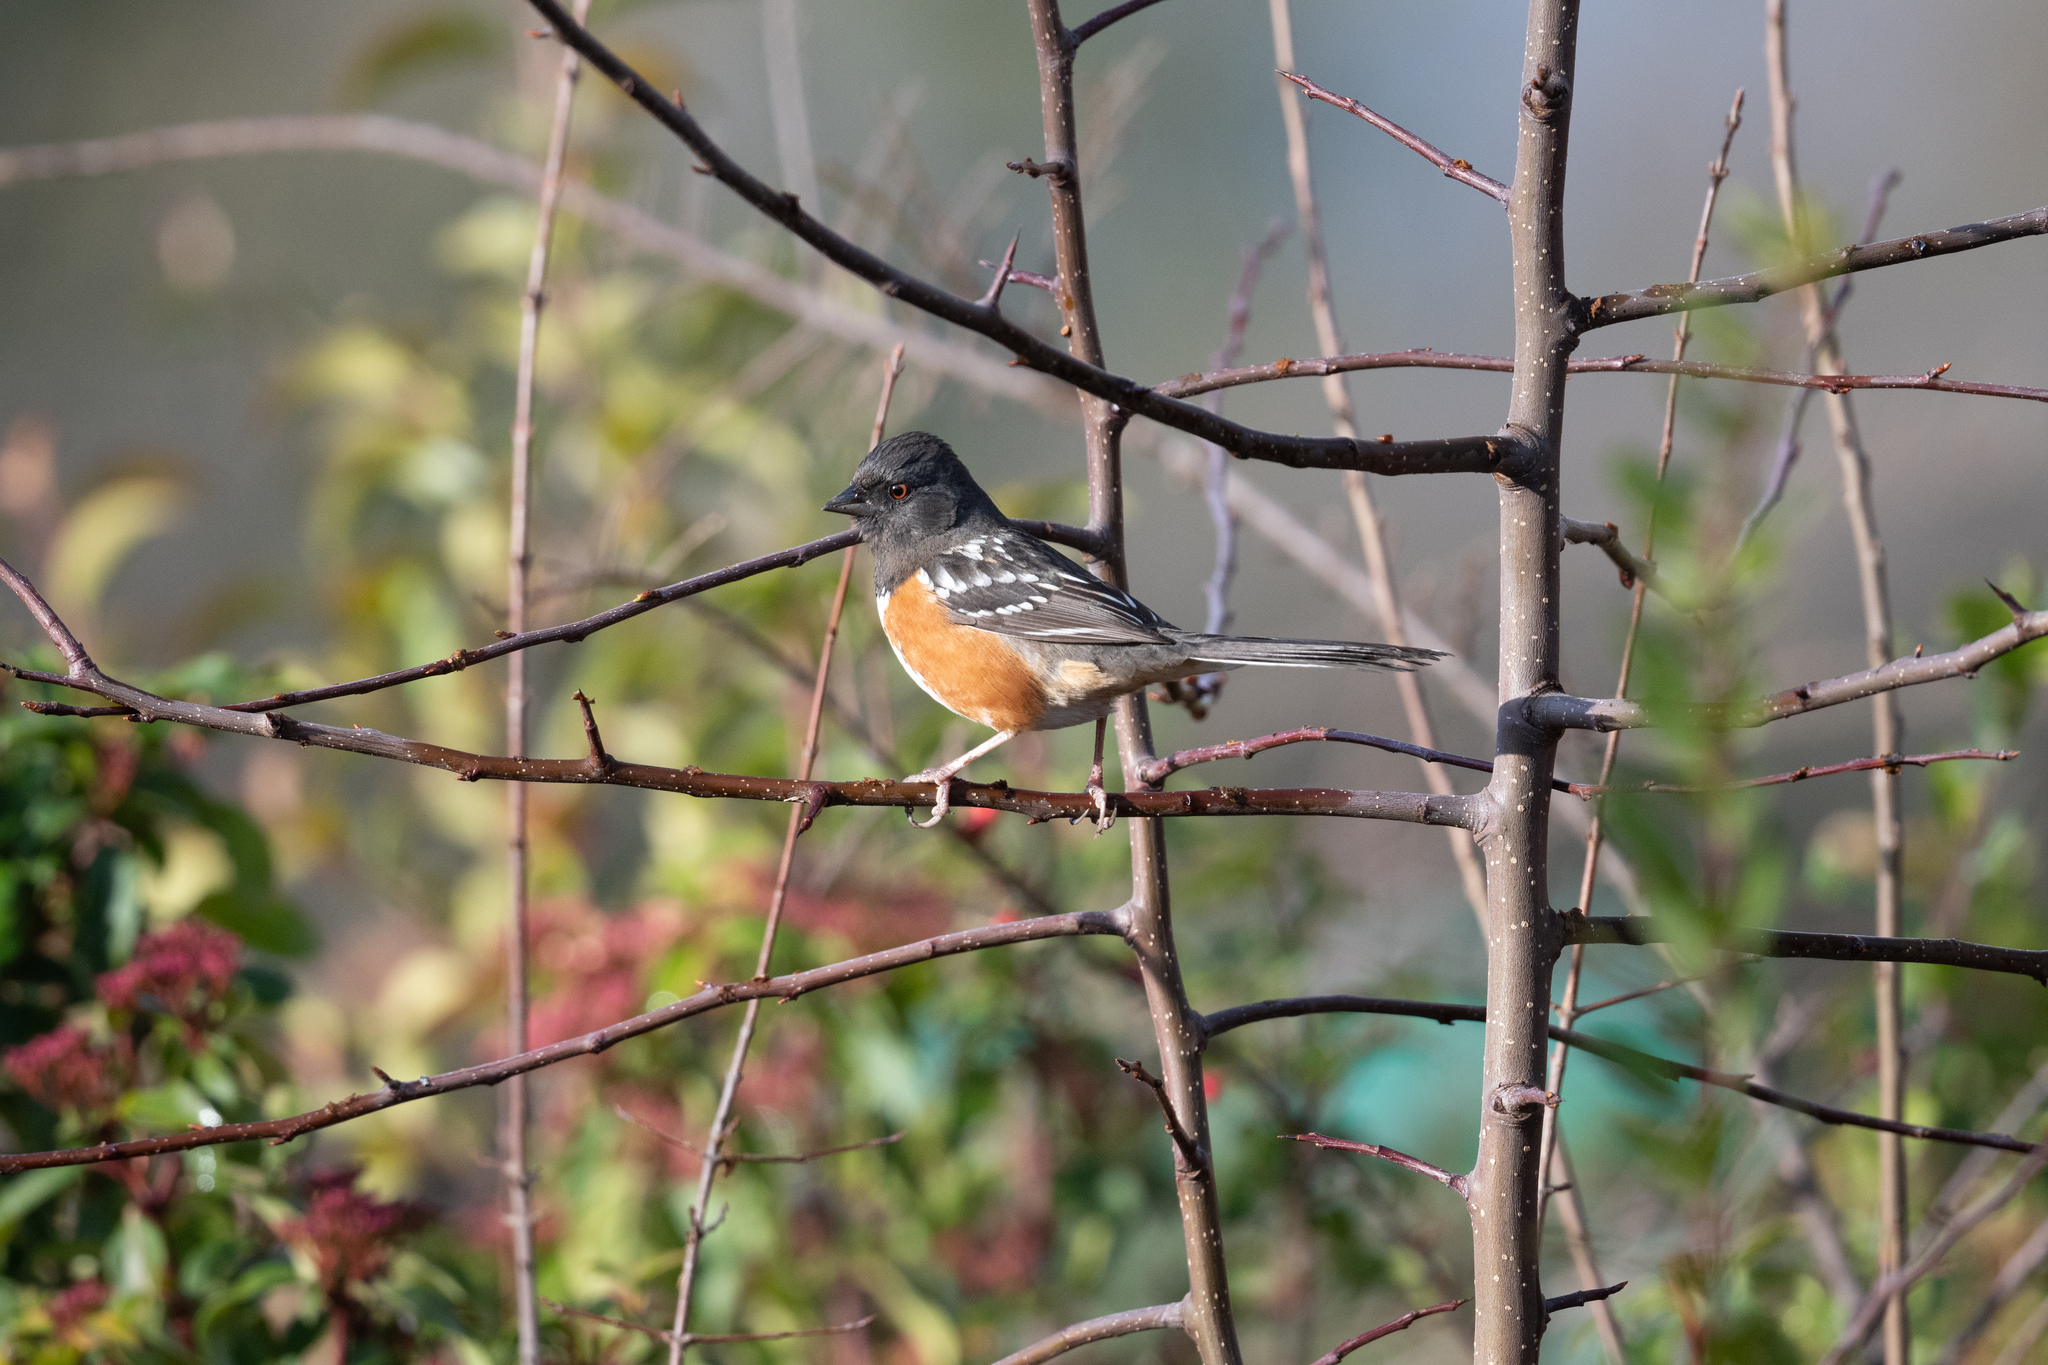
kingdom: Animalia
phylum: Chordata
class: Aves
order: Passeriformes
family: Passerellidae
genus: Pipilo
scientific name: Pipilo maculatus
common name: Spotted towhee
